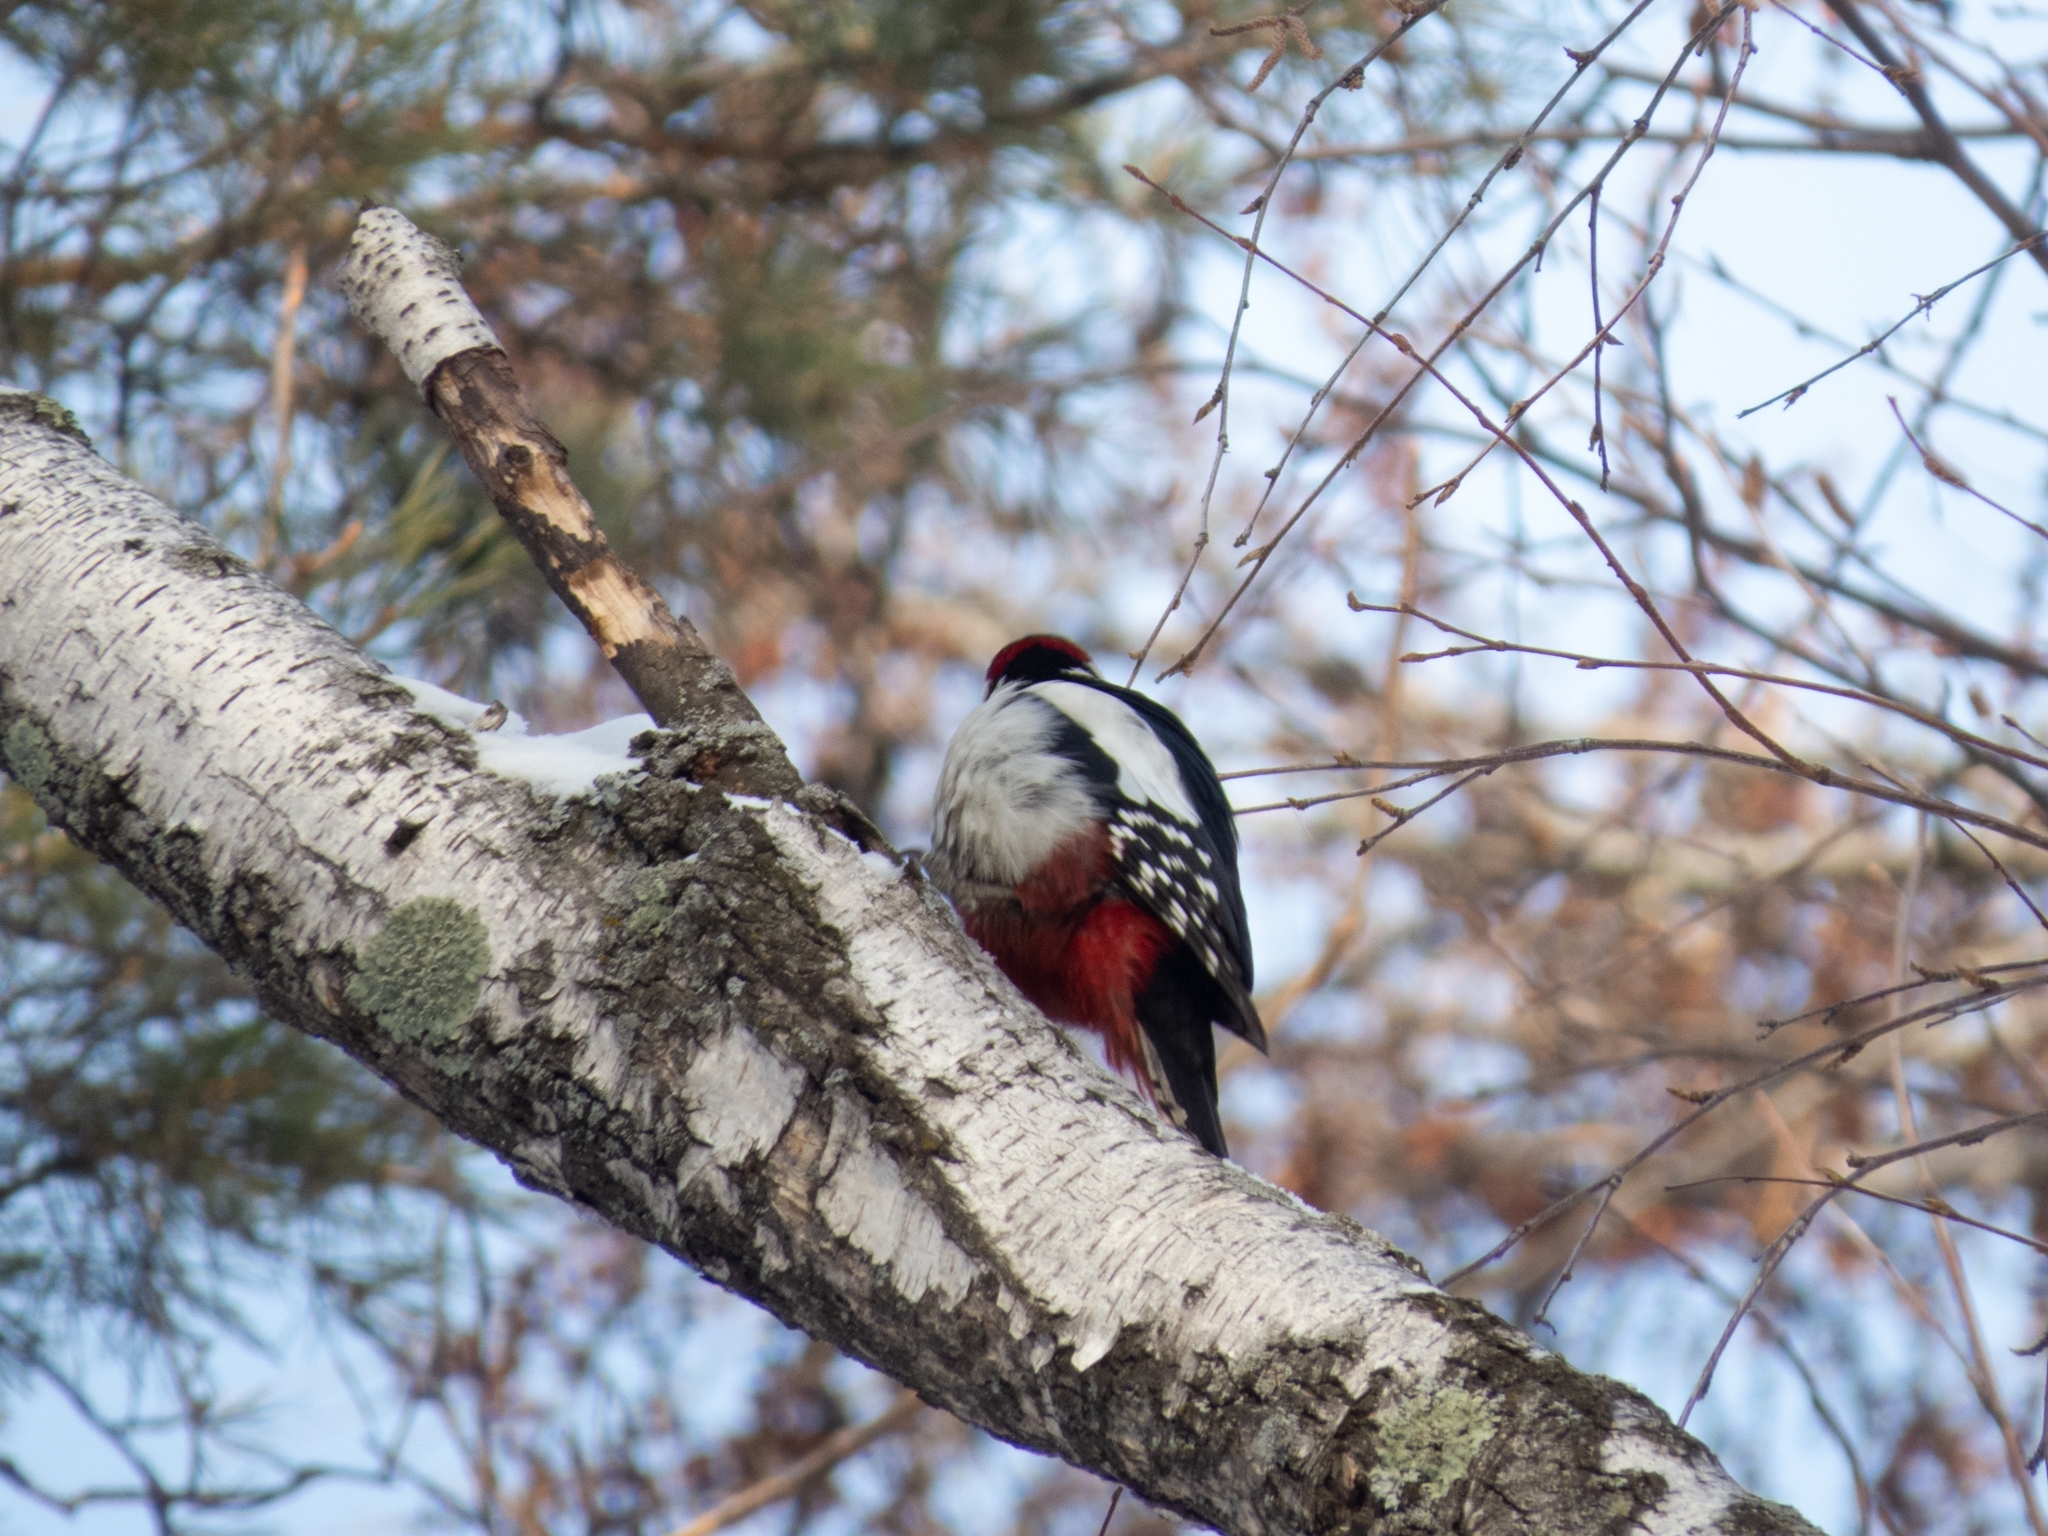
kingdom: Animalia
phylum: Chordata
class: Aves
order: Piciformes
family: Picidae
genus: Dendrocopos
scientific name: Dendrocopos major
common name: Great spotted woodpecker
